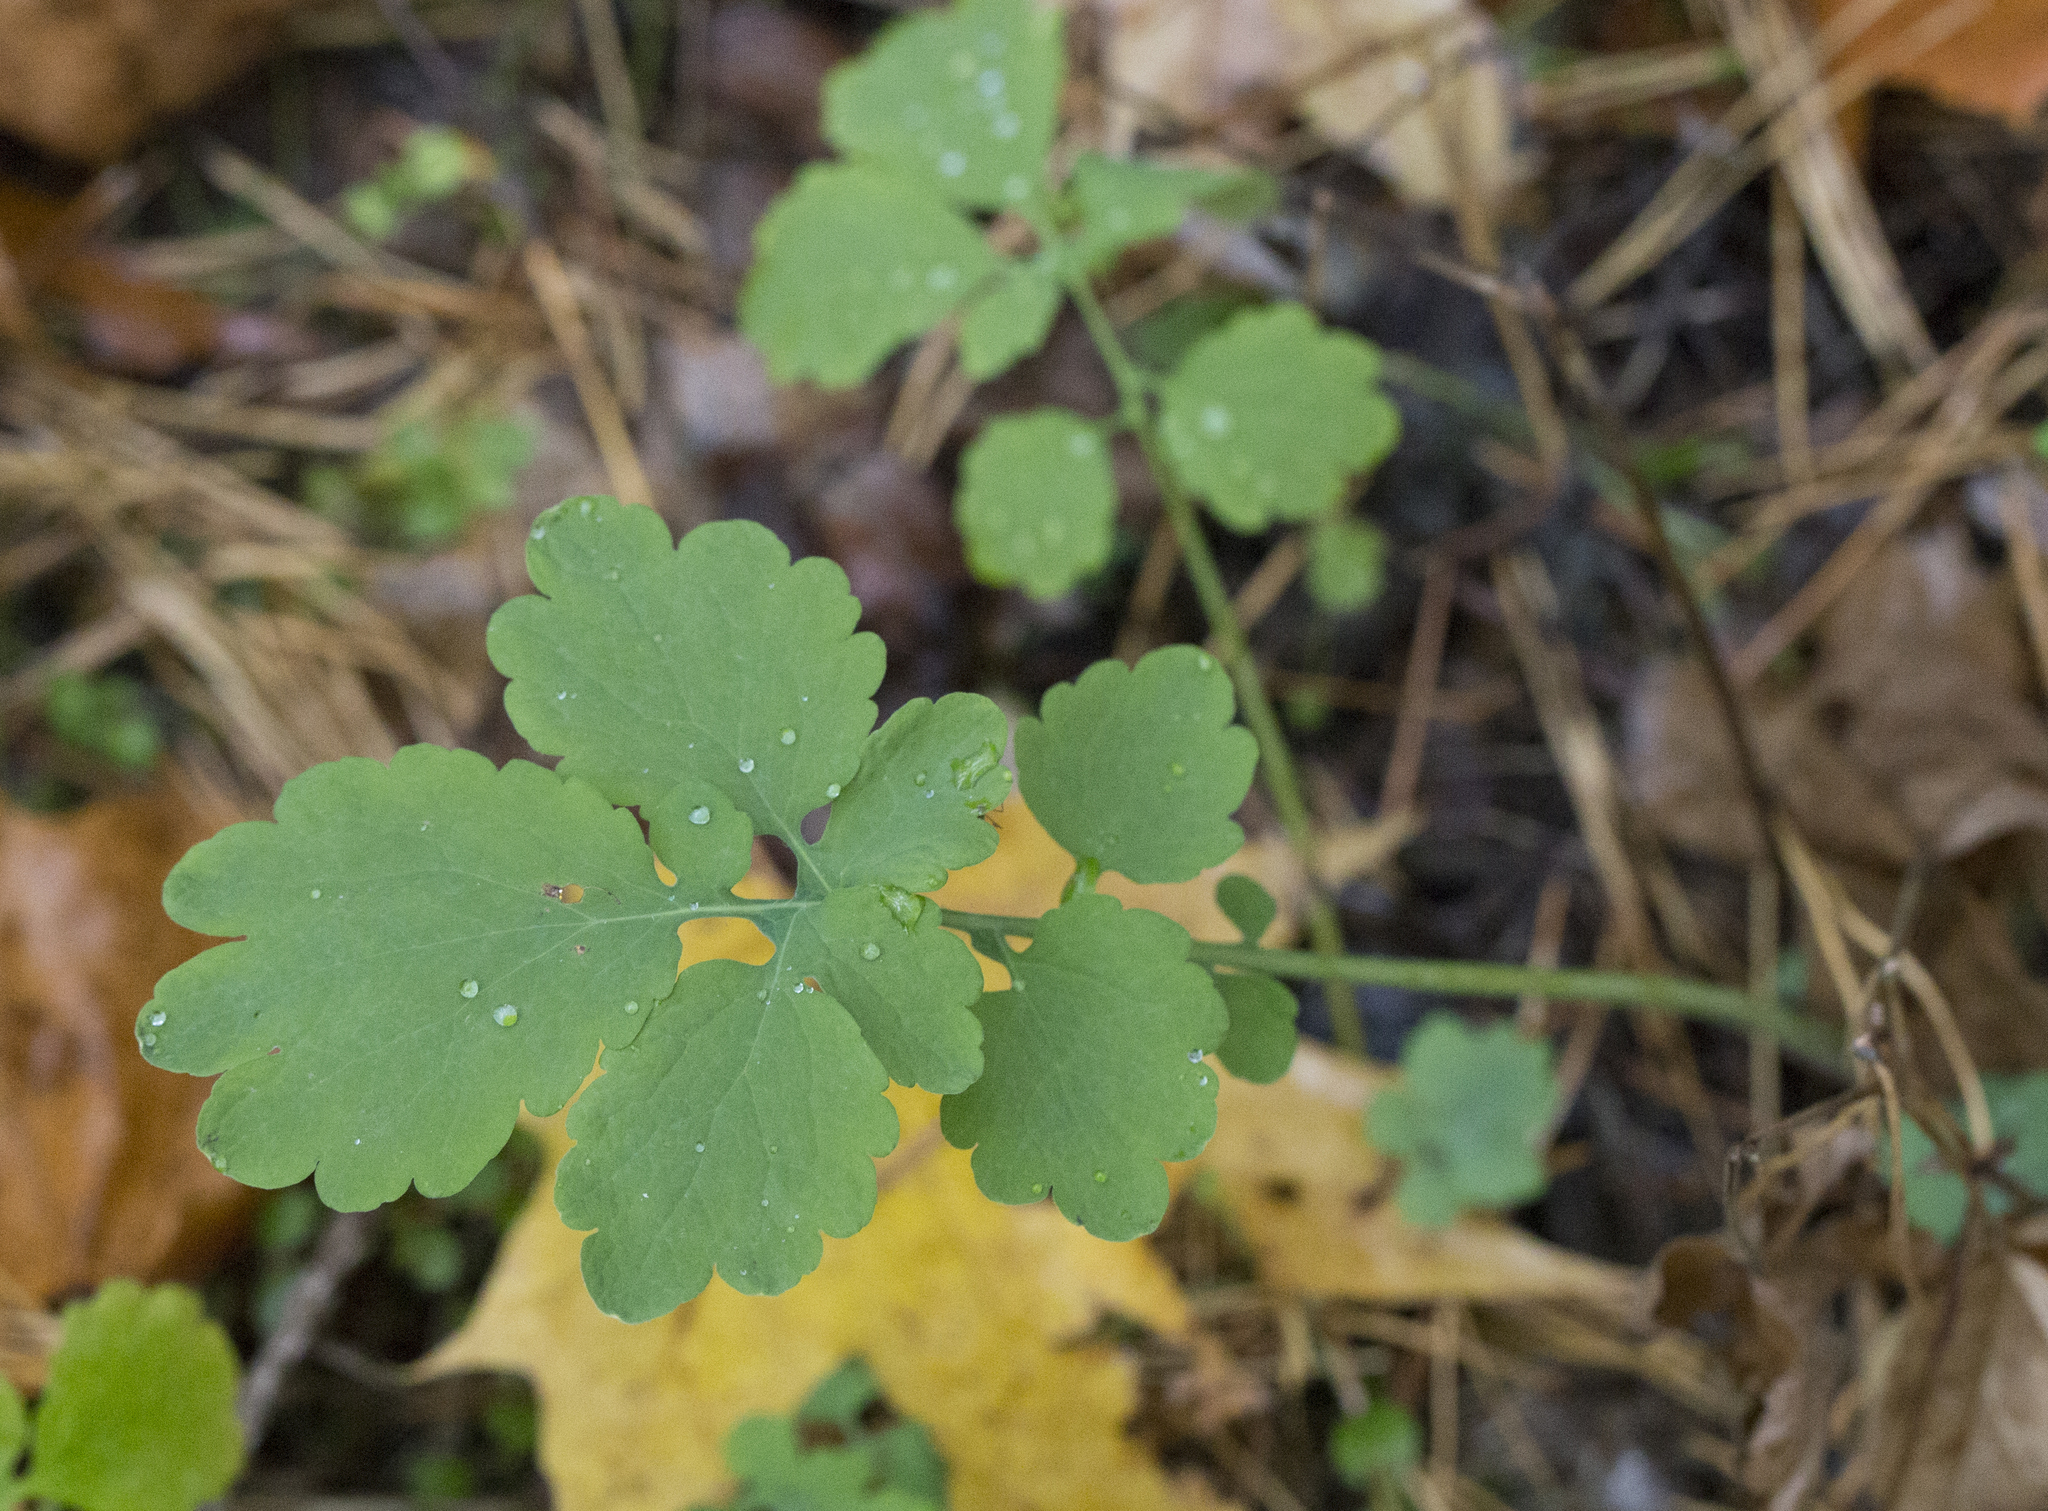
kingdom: Plantae
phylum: Tracheophyta
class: Magnoliopsida
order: Ranunculales
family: Papaveraceae
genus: Chelidonium
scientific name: Chelidonium majus
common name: Greater celandine
